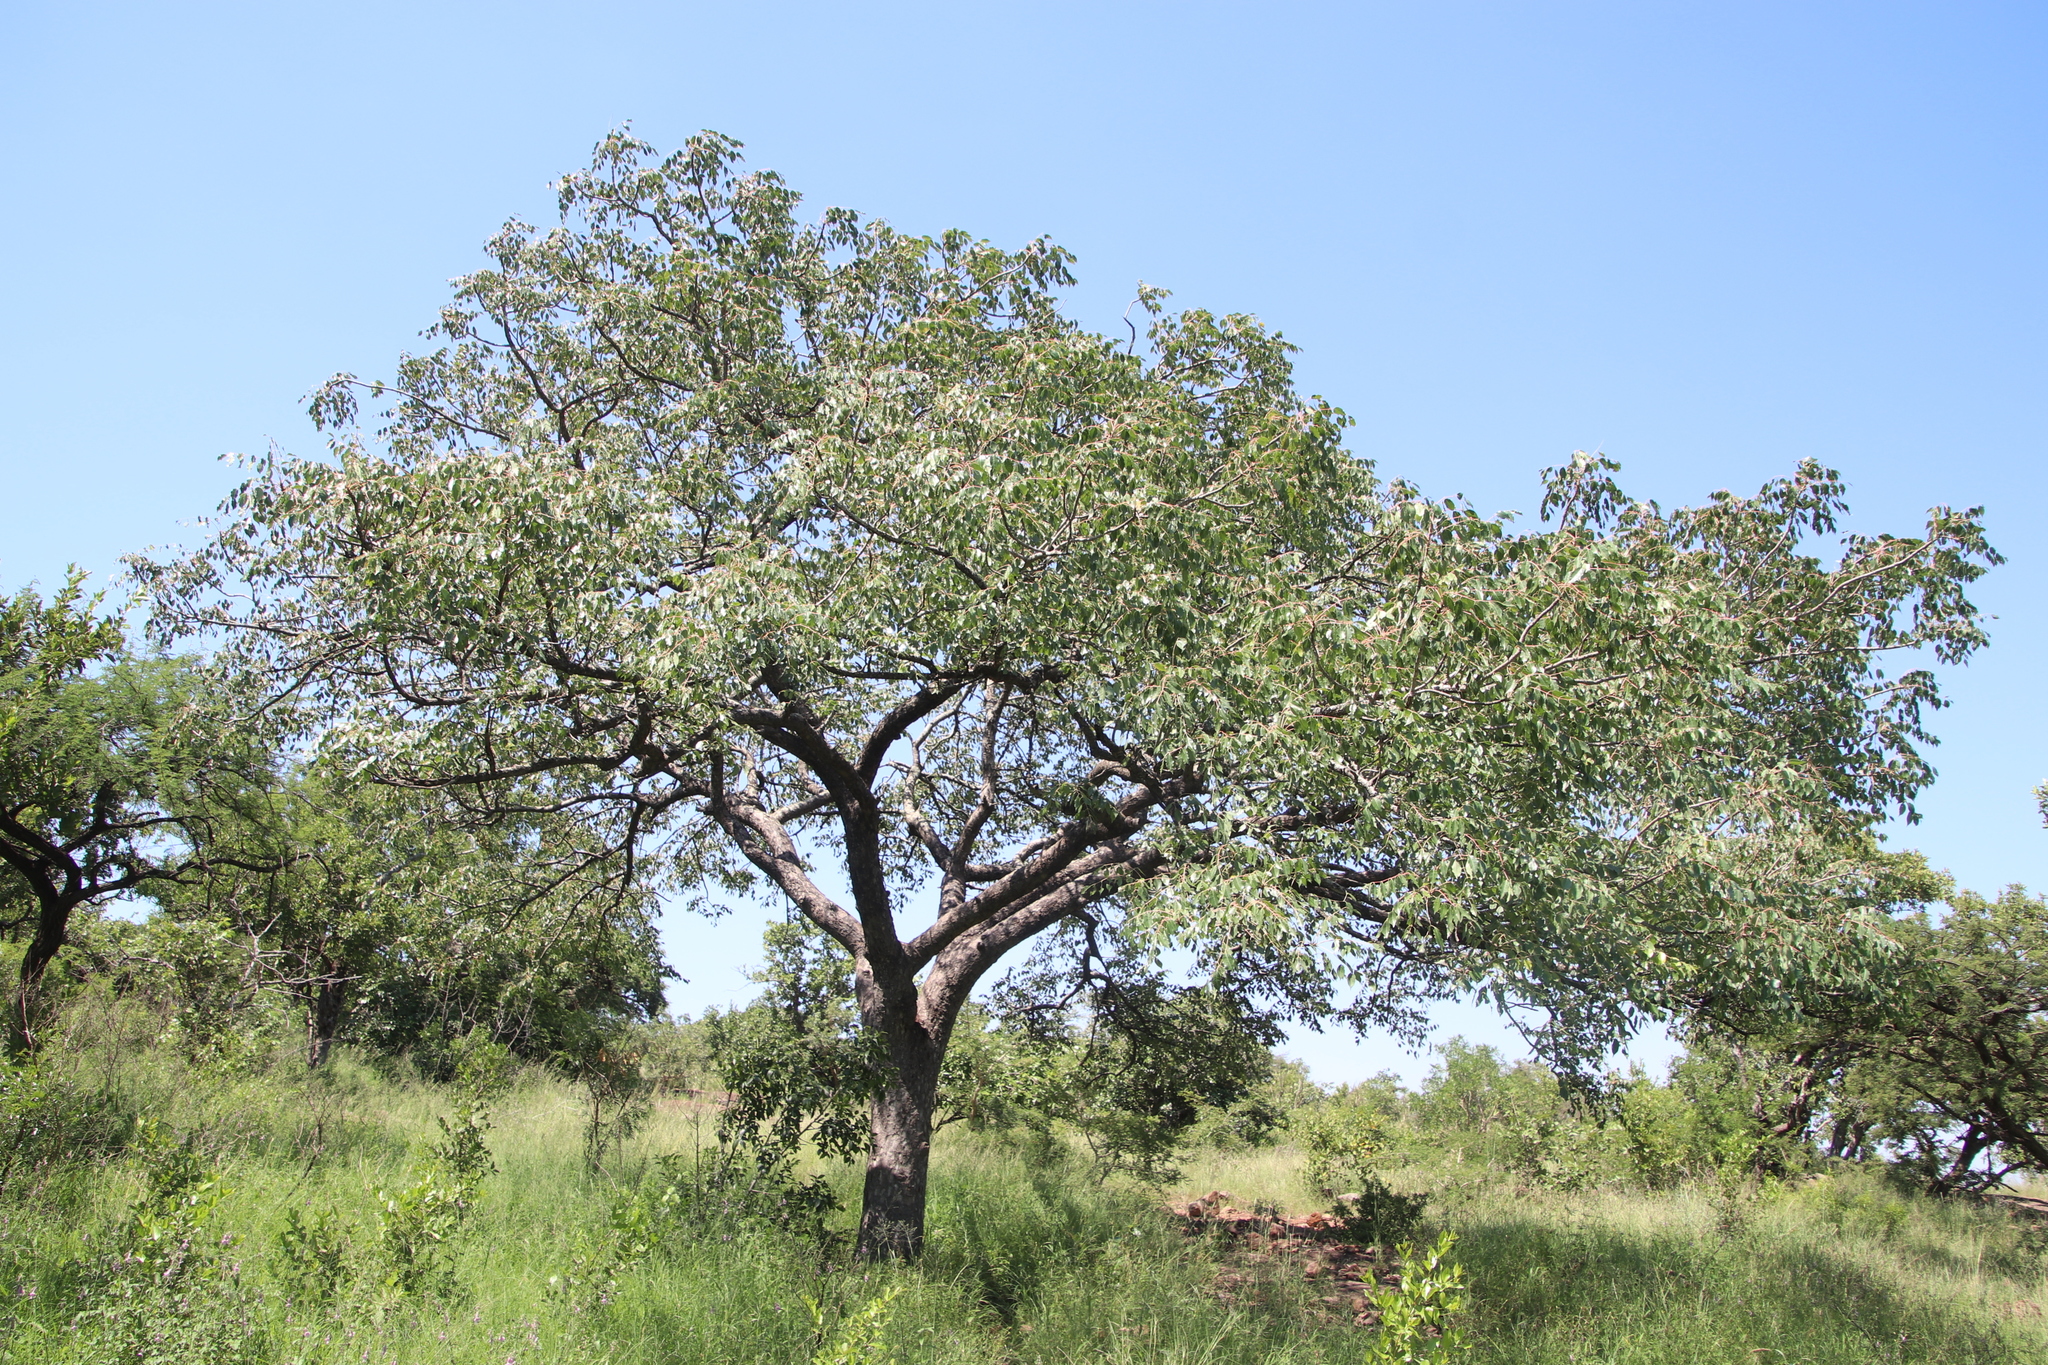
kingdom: Plantae
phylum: Tracheophyta
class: Magnoliopsida
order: Sapindales
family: Anacardiaceae
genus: Sclerocarya
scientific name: Sclerocarya birrea
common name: Marula
